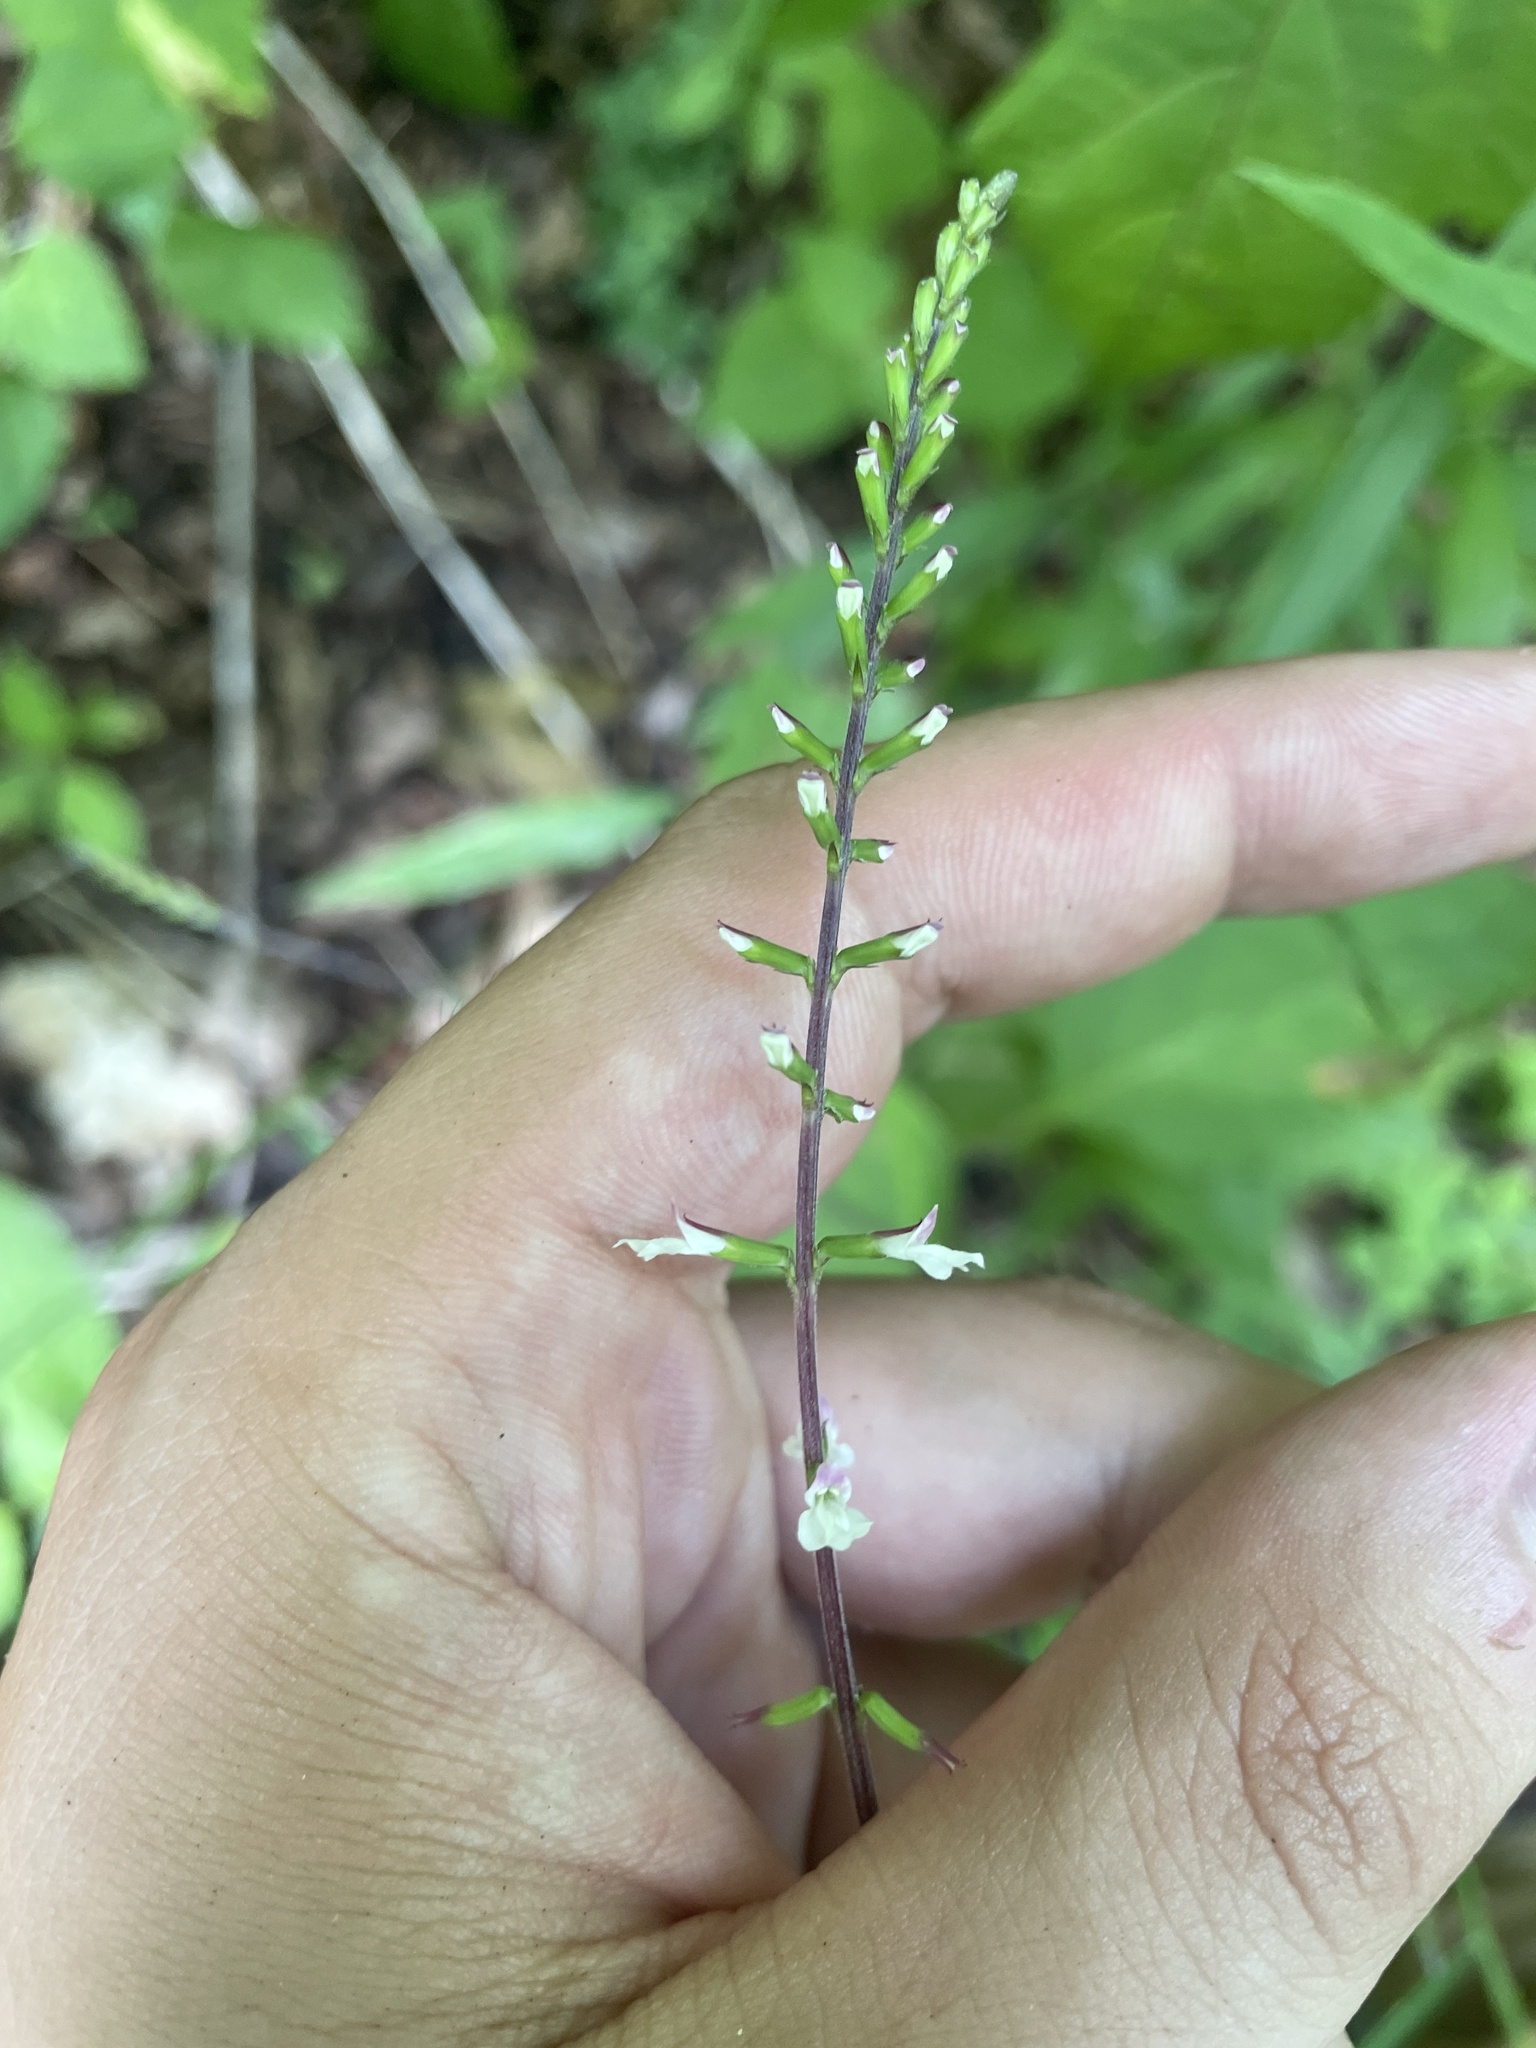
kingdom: Plantae
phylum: Tracheophyta
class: Magnoliopsida
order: Lamiales
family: Phrymaceae
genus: Phryma
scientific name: Phryma leptostachya
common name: American lopseed
